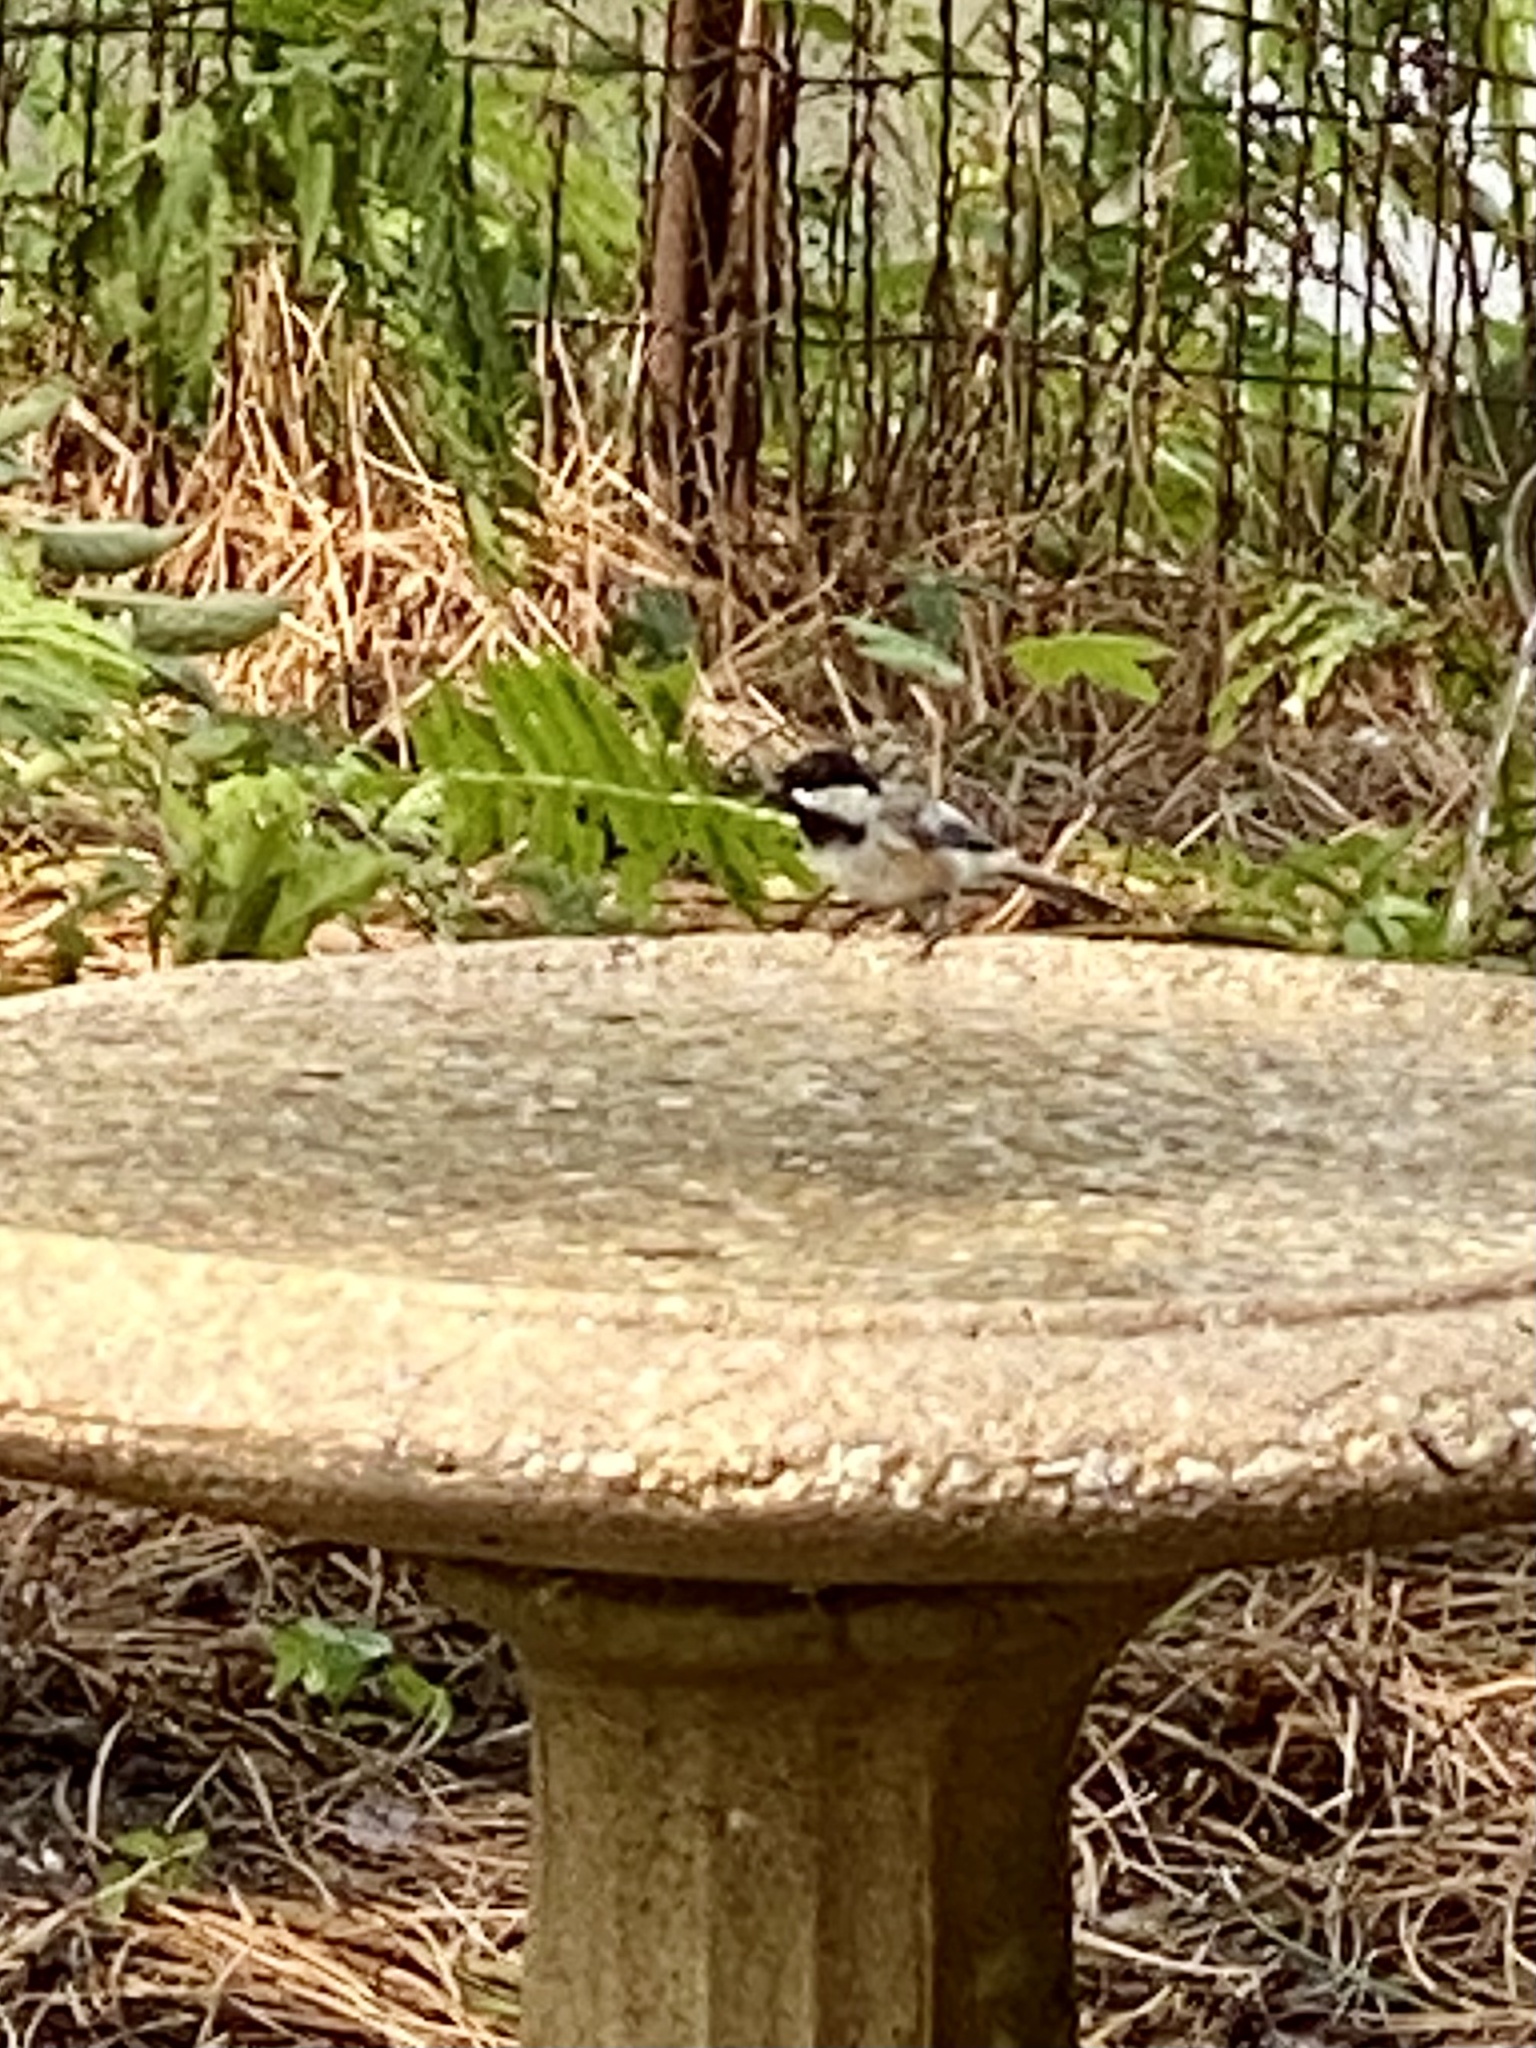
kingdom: Animalia
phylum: Chordata
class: Aves
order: Passeriformes
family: Paridae
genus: Poecile
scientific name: Poecile atricapillus
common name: Black-capped chickadee
